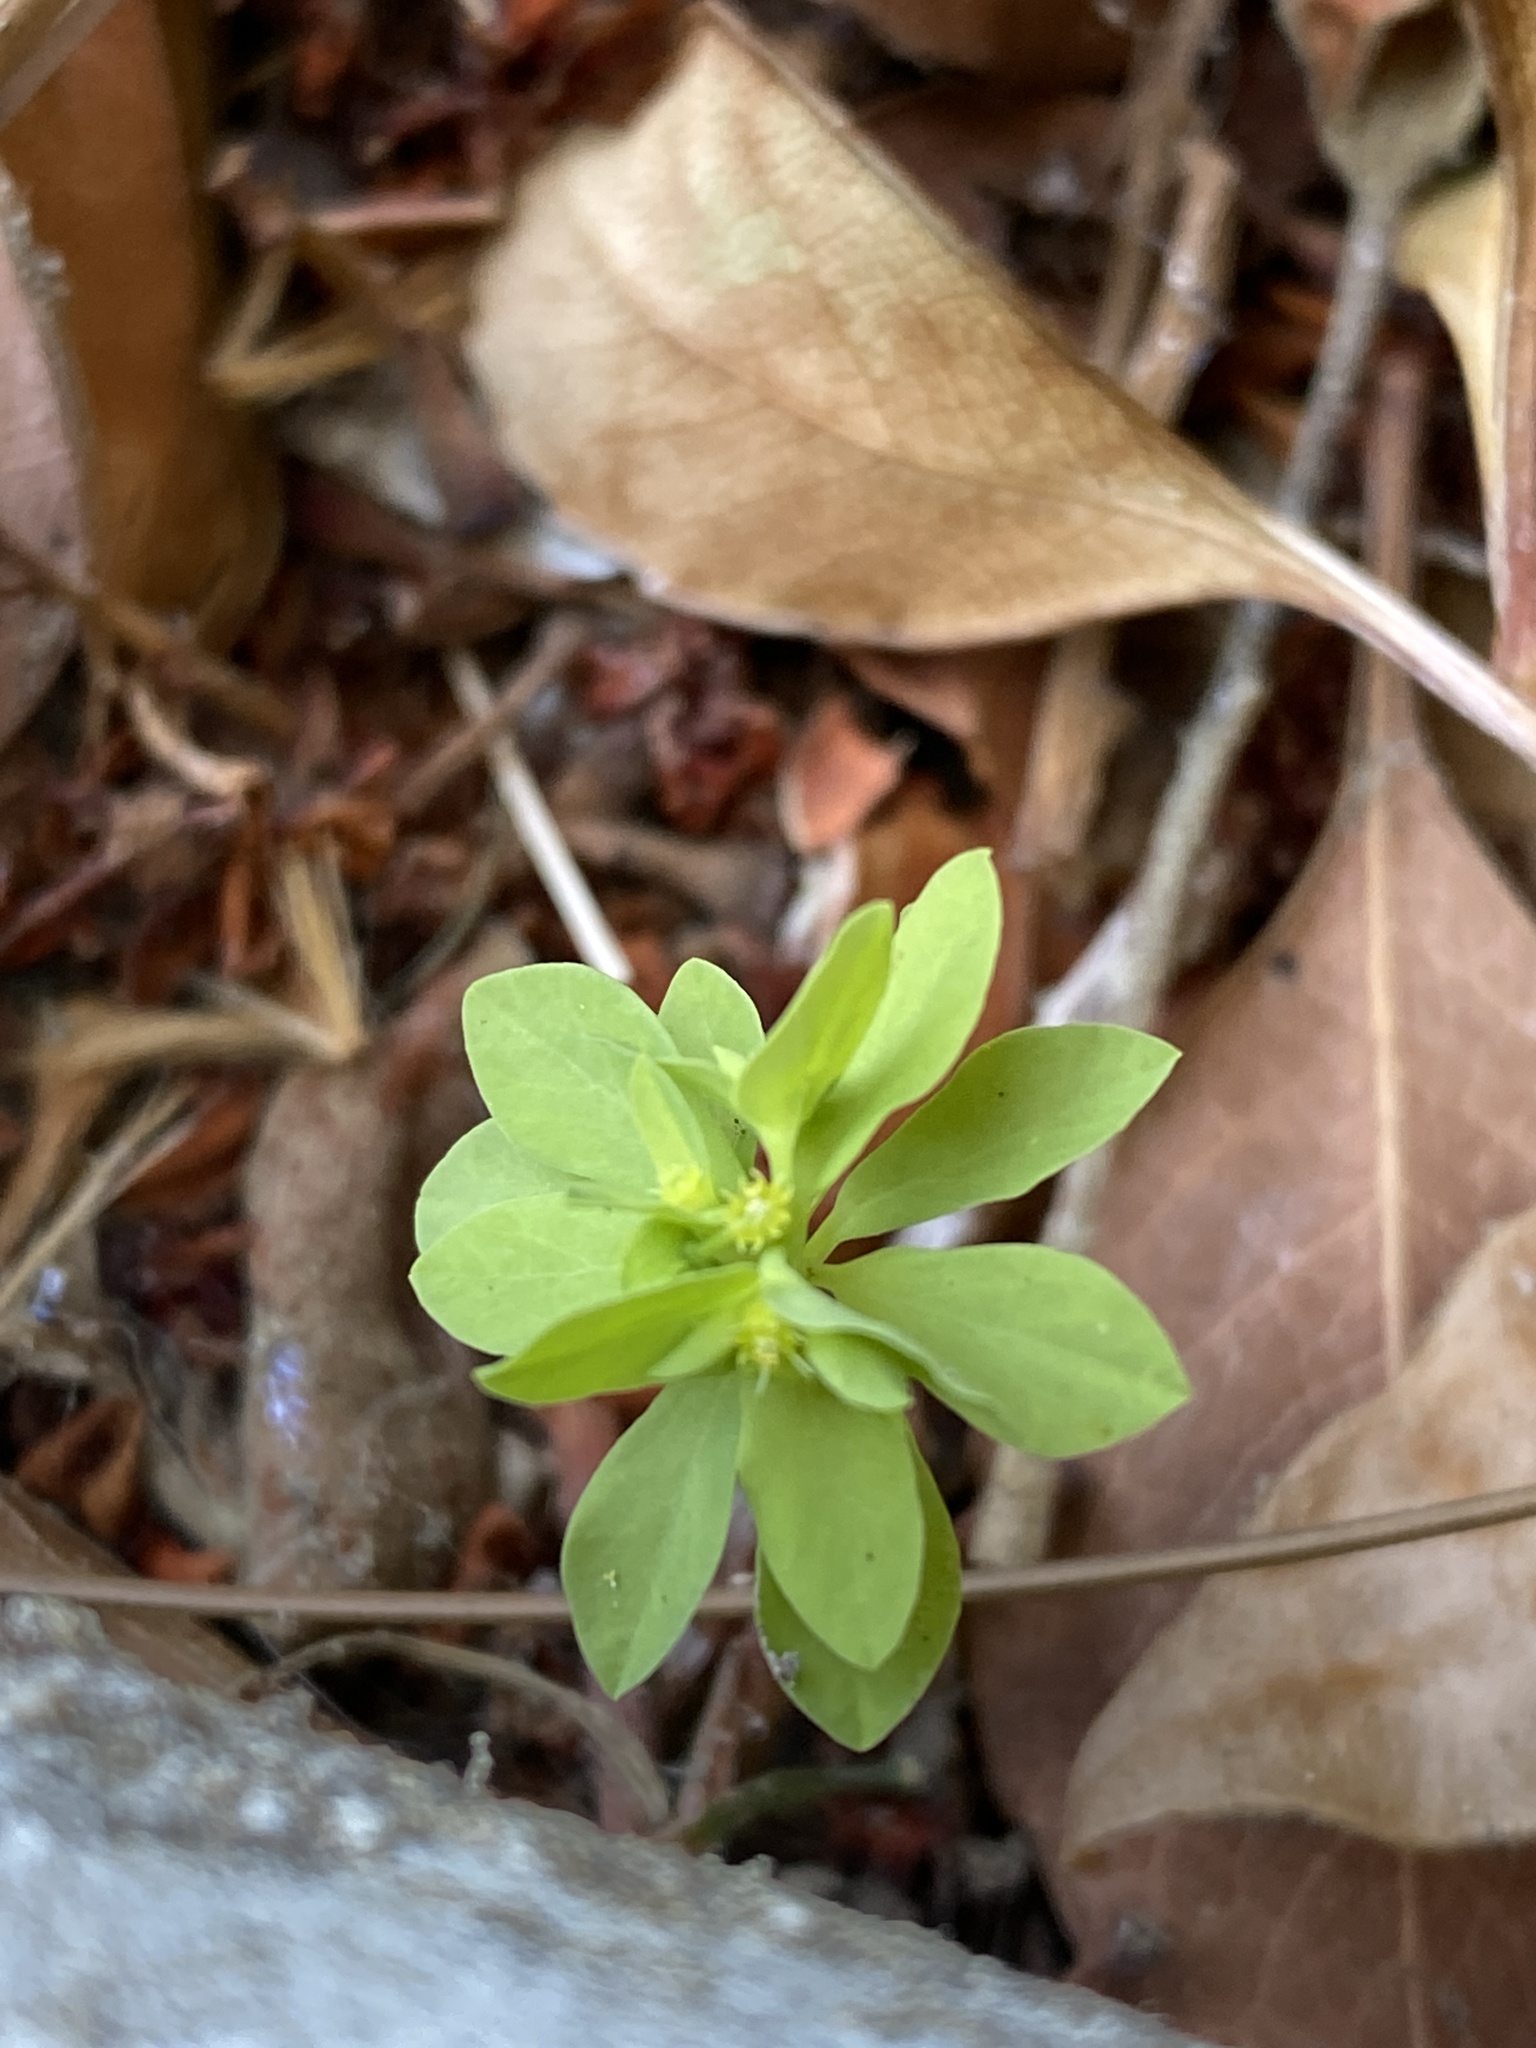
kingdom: Plantae
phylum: Tracheophyta
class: Magnoliopsida
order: Malpighiales
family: Euphorbiaceae
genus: Euphorbia
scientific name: Euphorbia peplus
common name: Petty spurge
